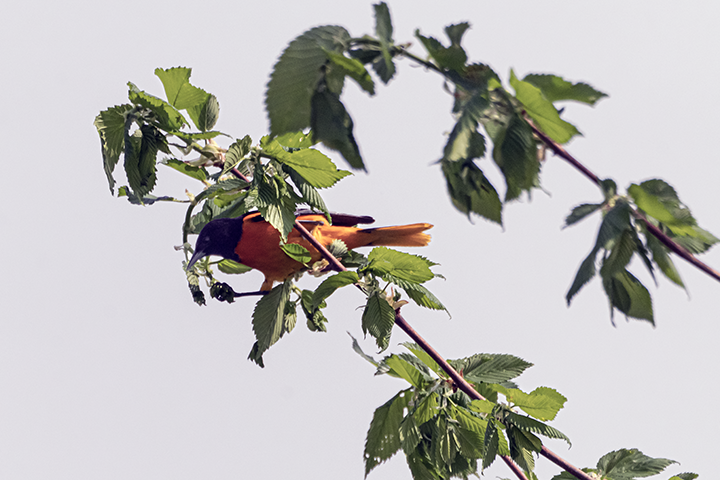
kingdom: Animalia
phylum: Chordata
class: Aves
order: Passeriformes
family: Icteridae
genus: Icterus
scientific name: Icterus galbula
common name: Baltimore oriole
